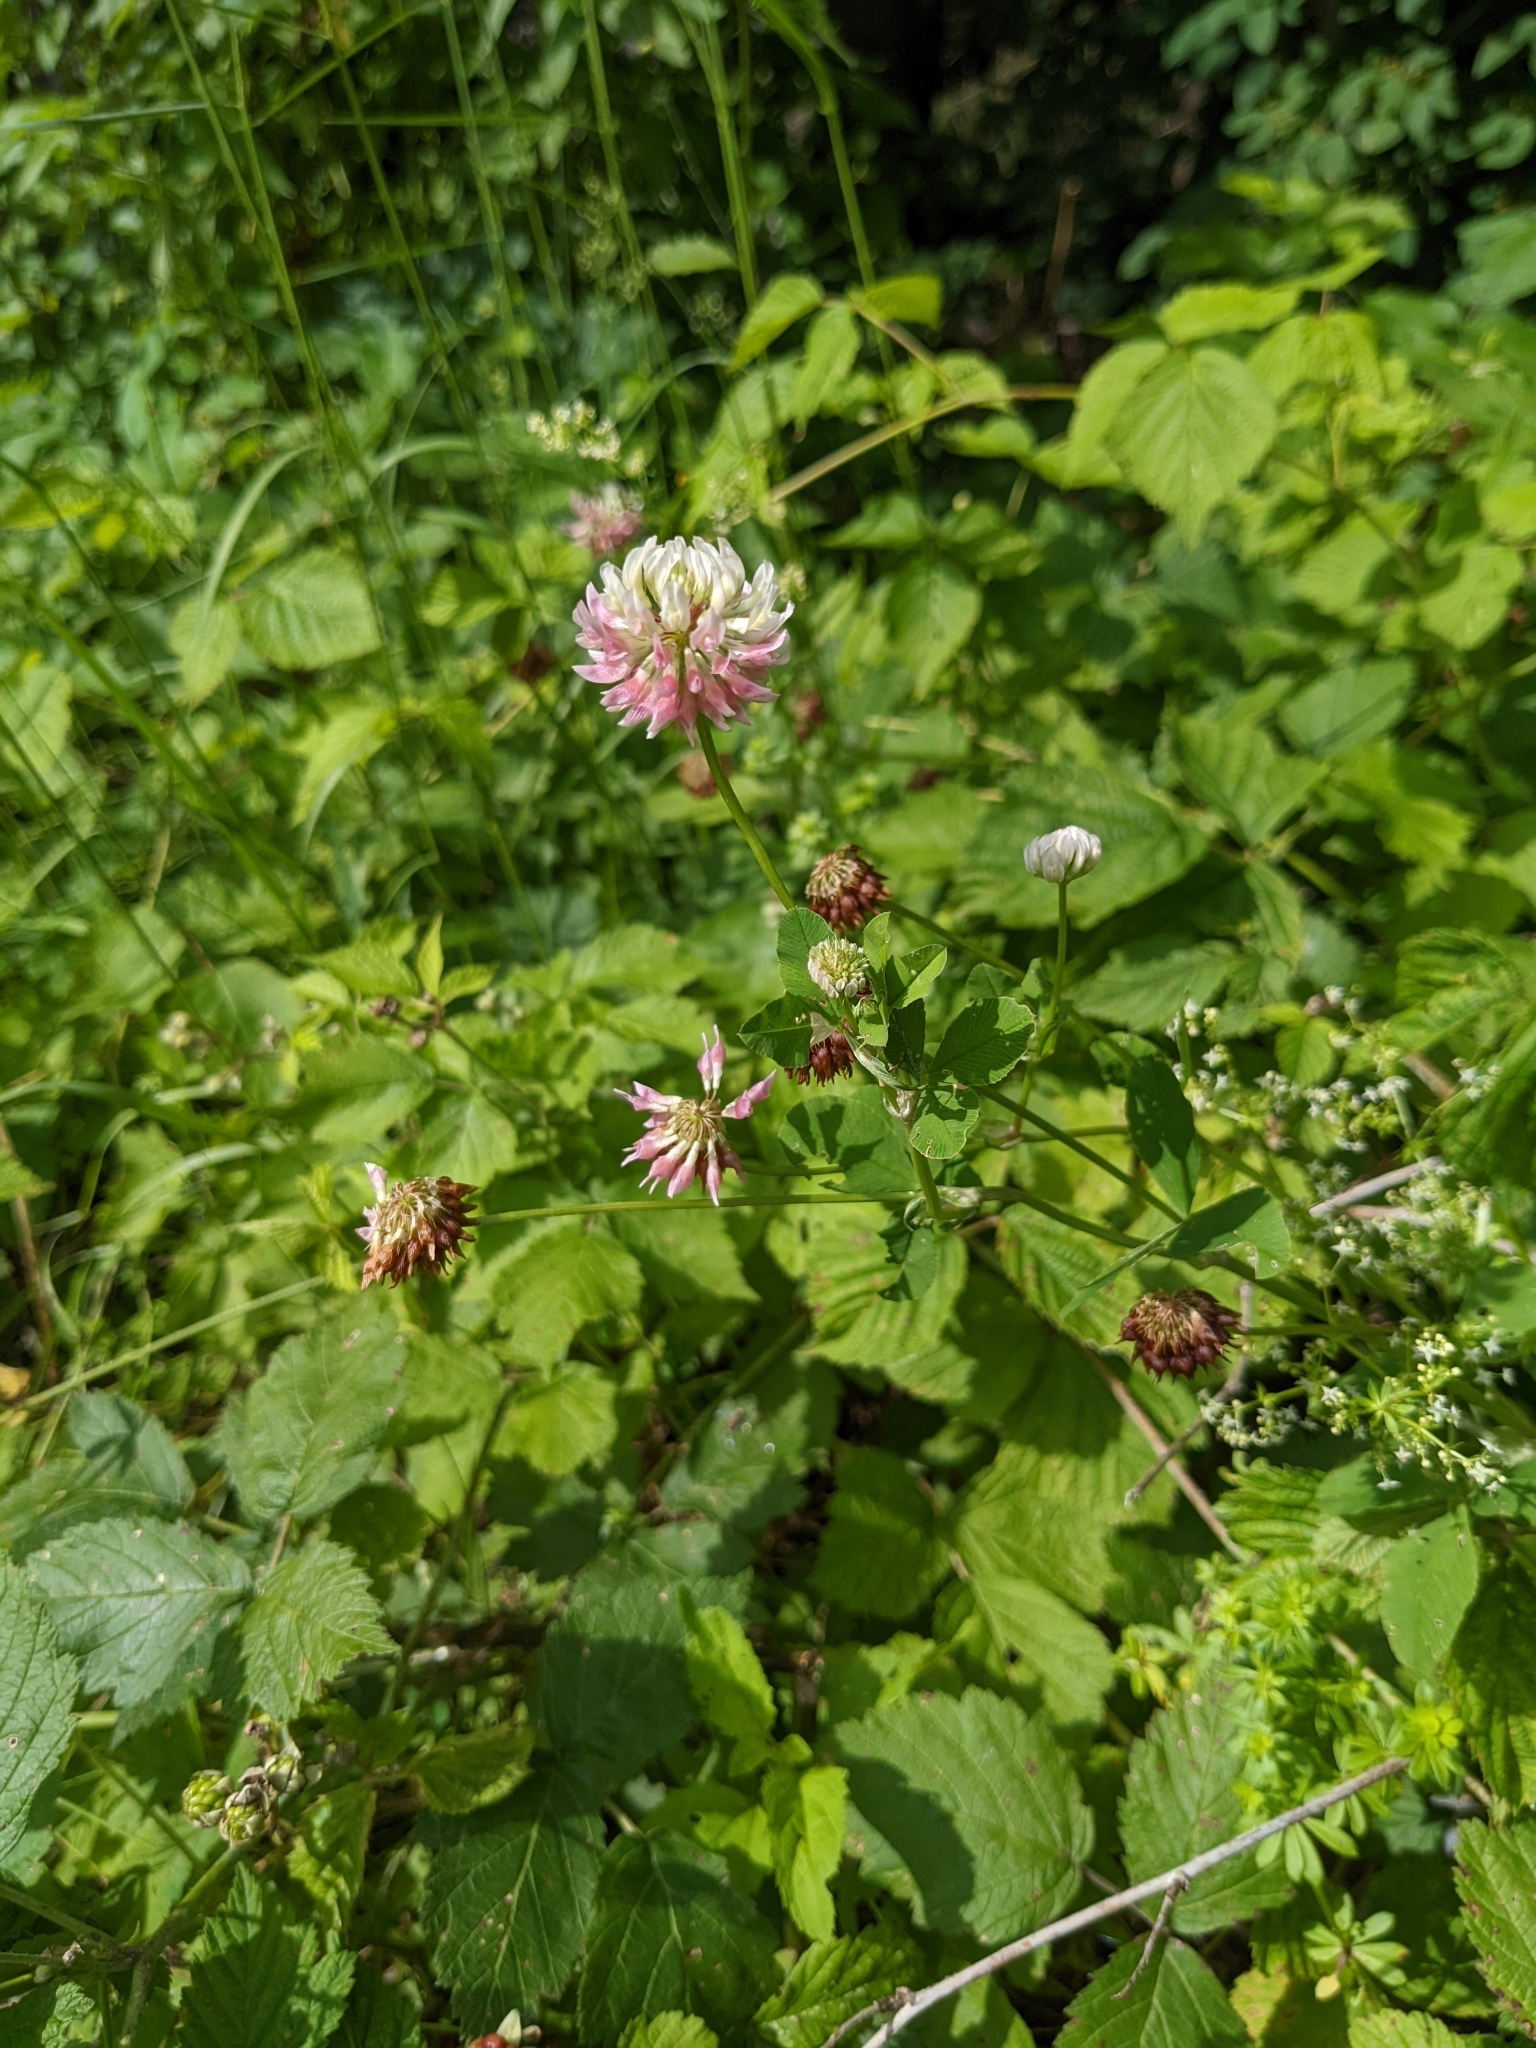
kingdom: Plantae
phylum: Tracheophyta
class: Magnoliopsida
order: Fabales
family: Fabaceae
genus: Trifolium
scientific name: Trifolium hybridum
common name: Alsike clover
